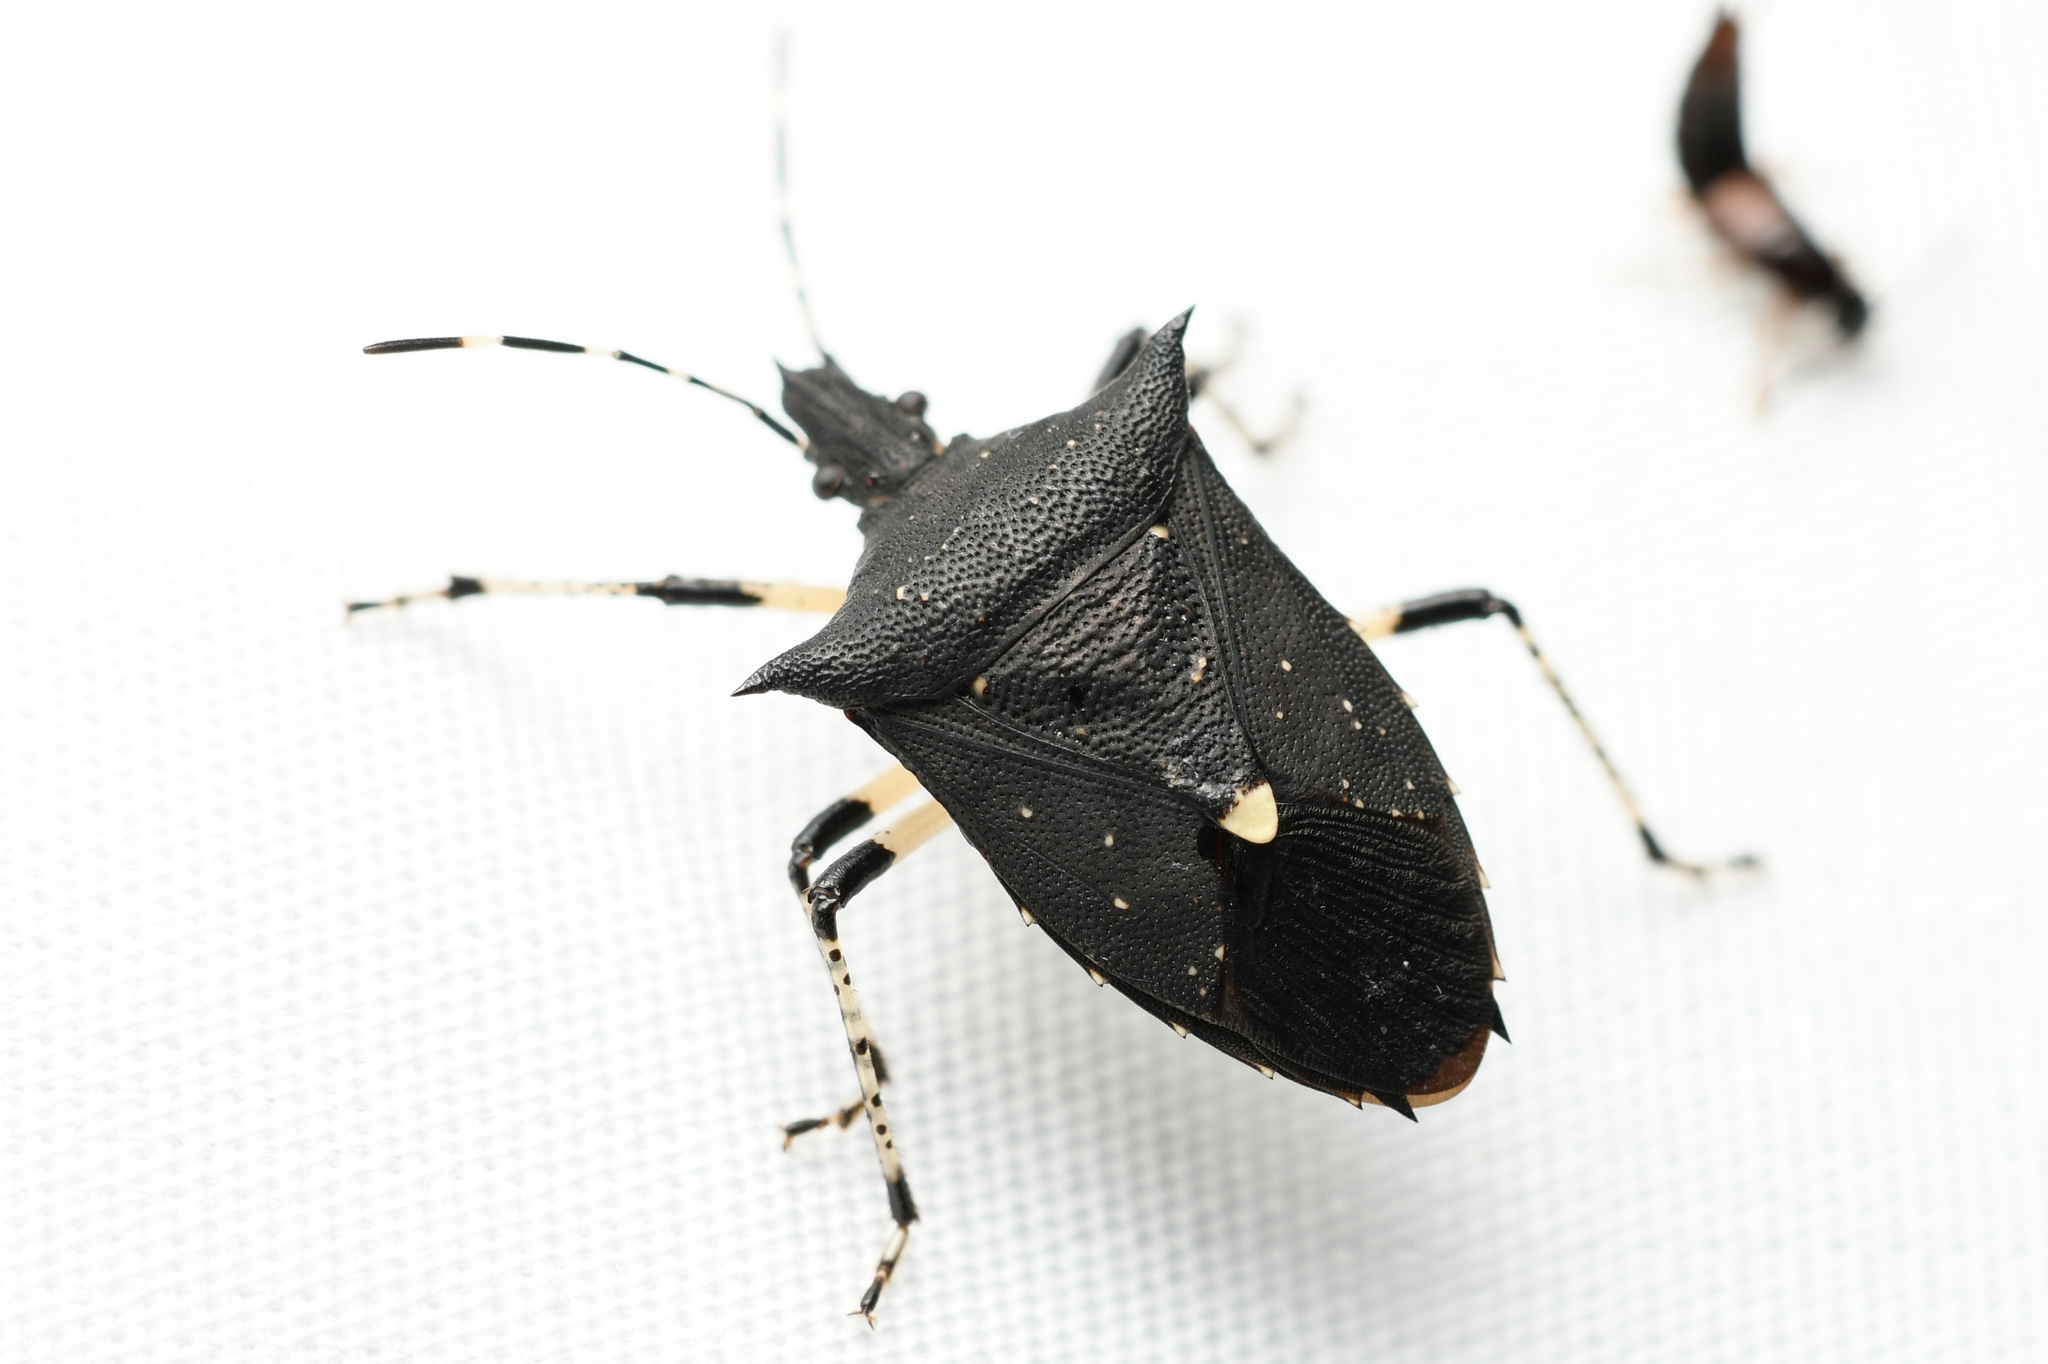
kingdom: Animalia
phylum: Arthropoda
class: Insecta
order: Hemiptera
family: Pentatomidae
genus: Proxys
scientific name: Proxys punctulatus
